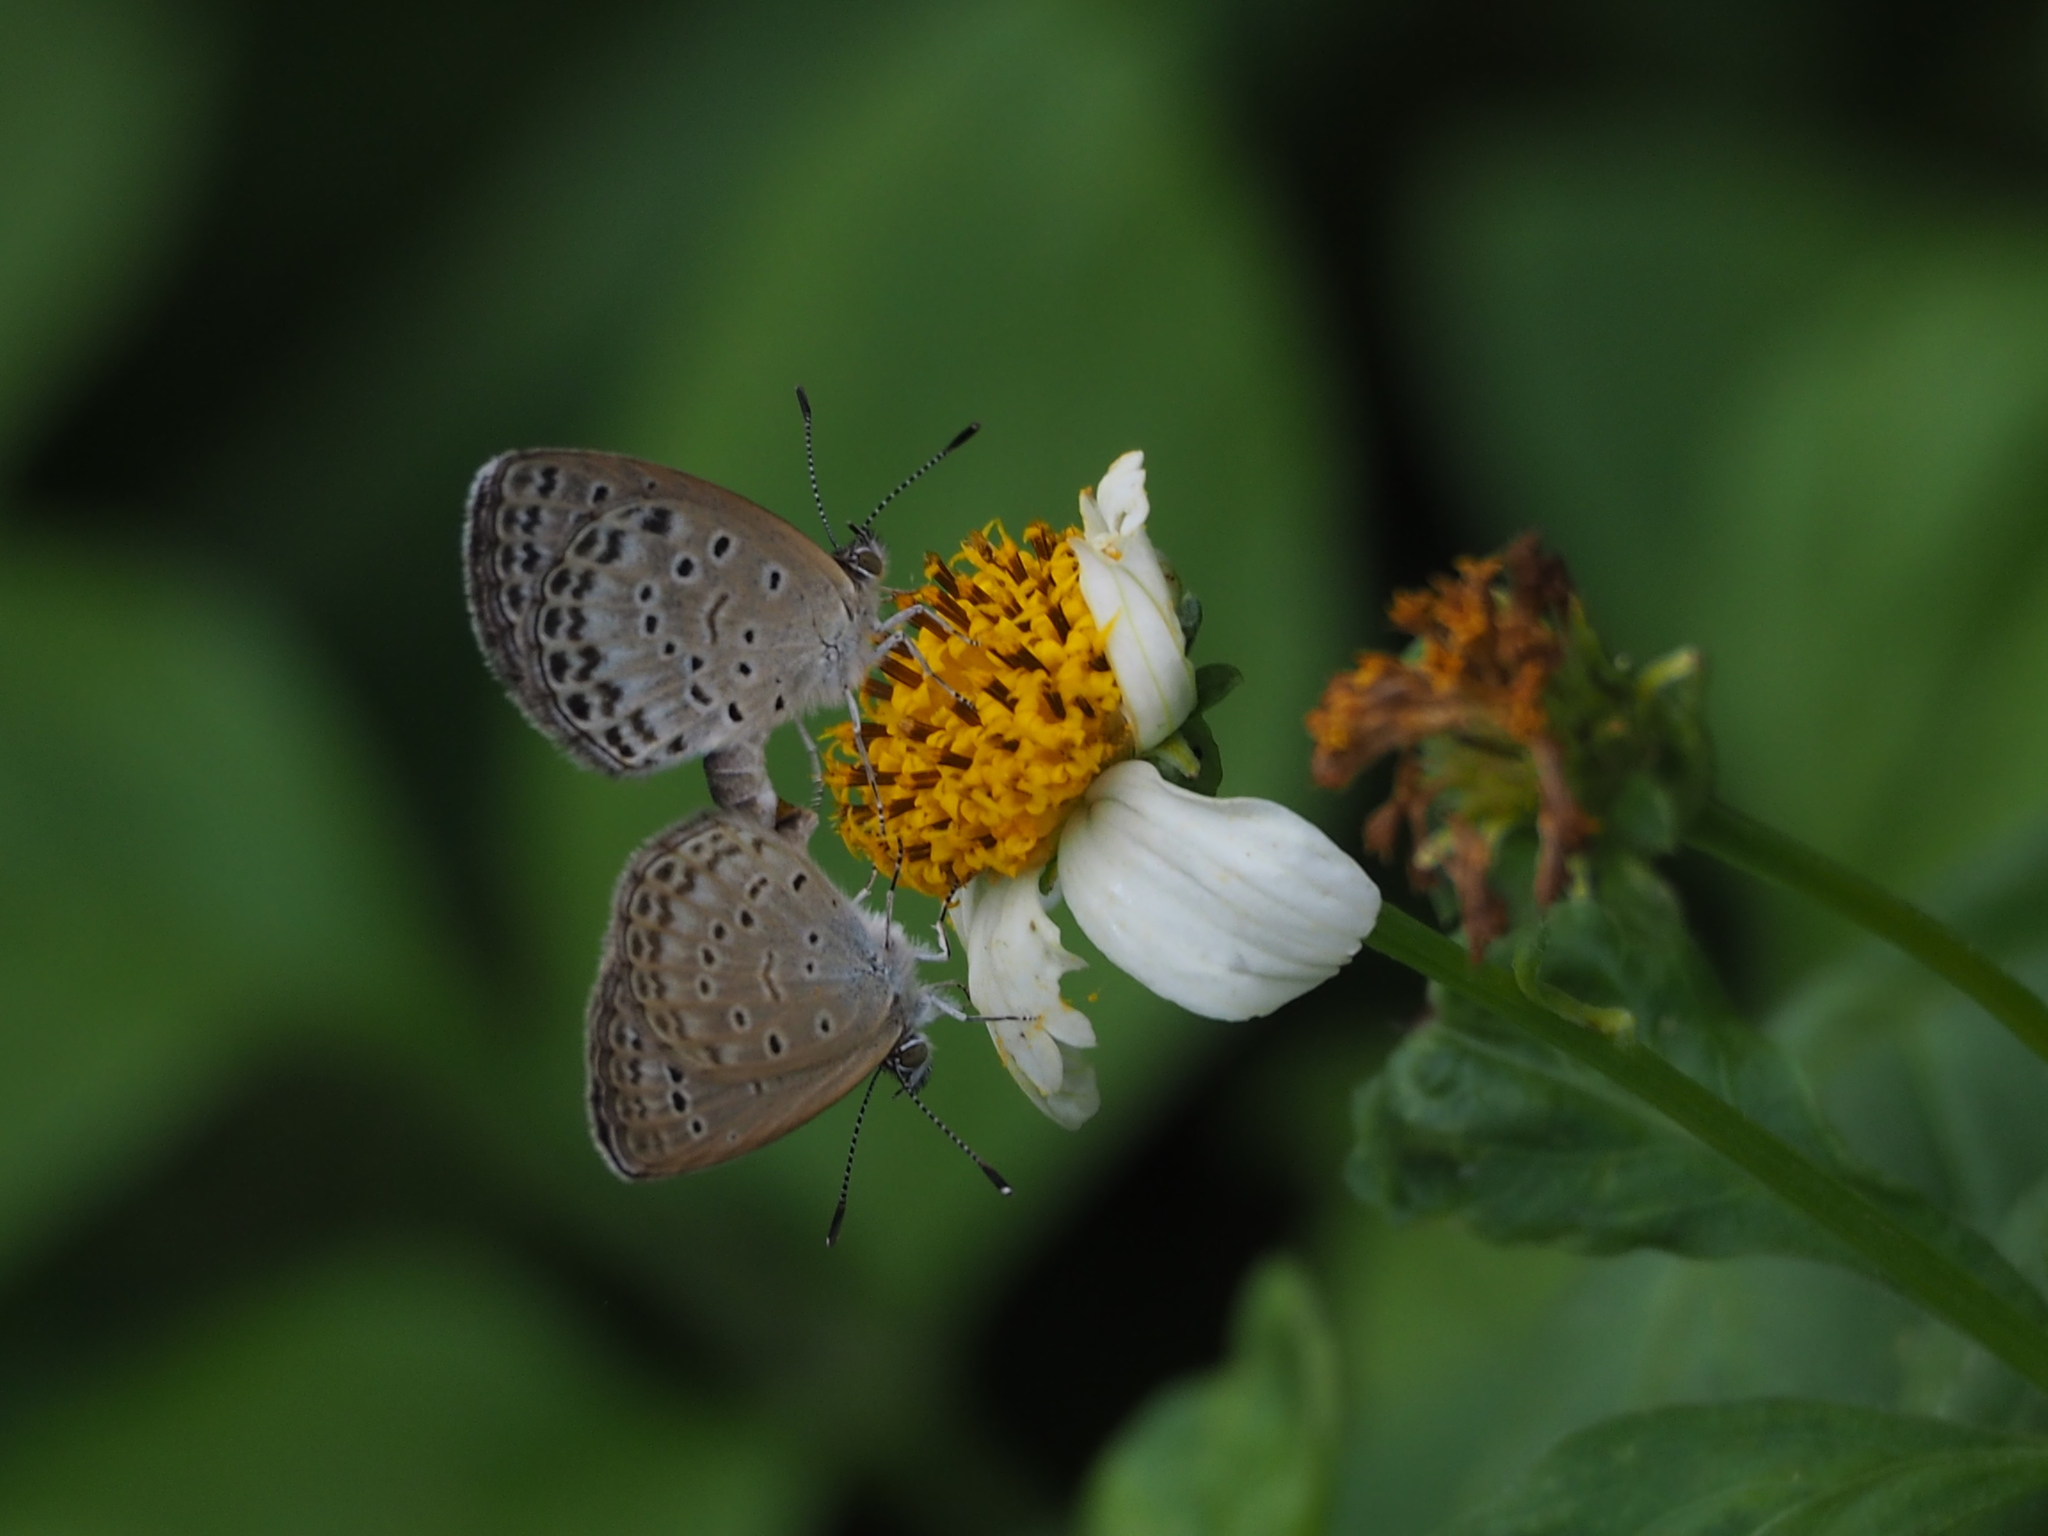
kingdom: Animalia
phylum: Arthropoda
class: Insecta
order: Lepidoptera
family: Lycaenidae
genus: Pseudozizeeria
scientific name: Pseudozizeeria maha
